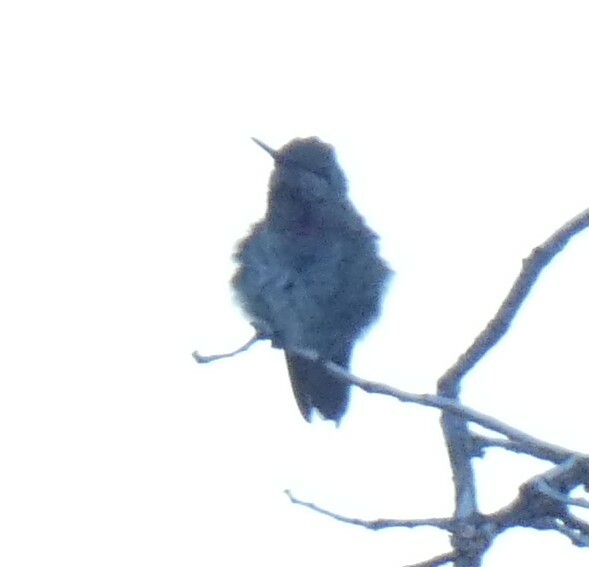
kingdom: Animalia
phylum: Chordata
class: Aves
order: Apodiformes
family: Trochilidae
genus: Calypte
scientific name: Calypte anna
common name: Anna's hummingbird
